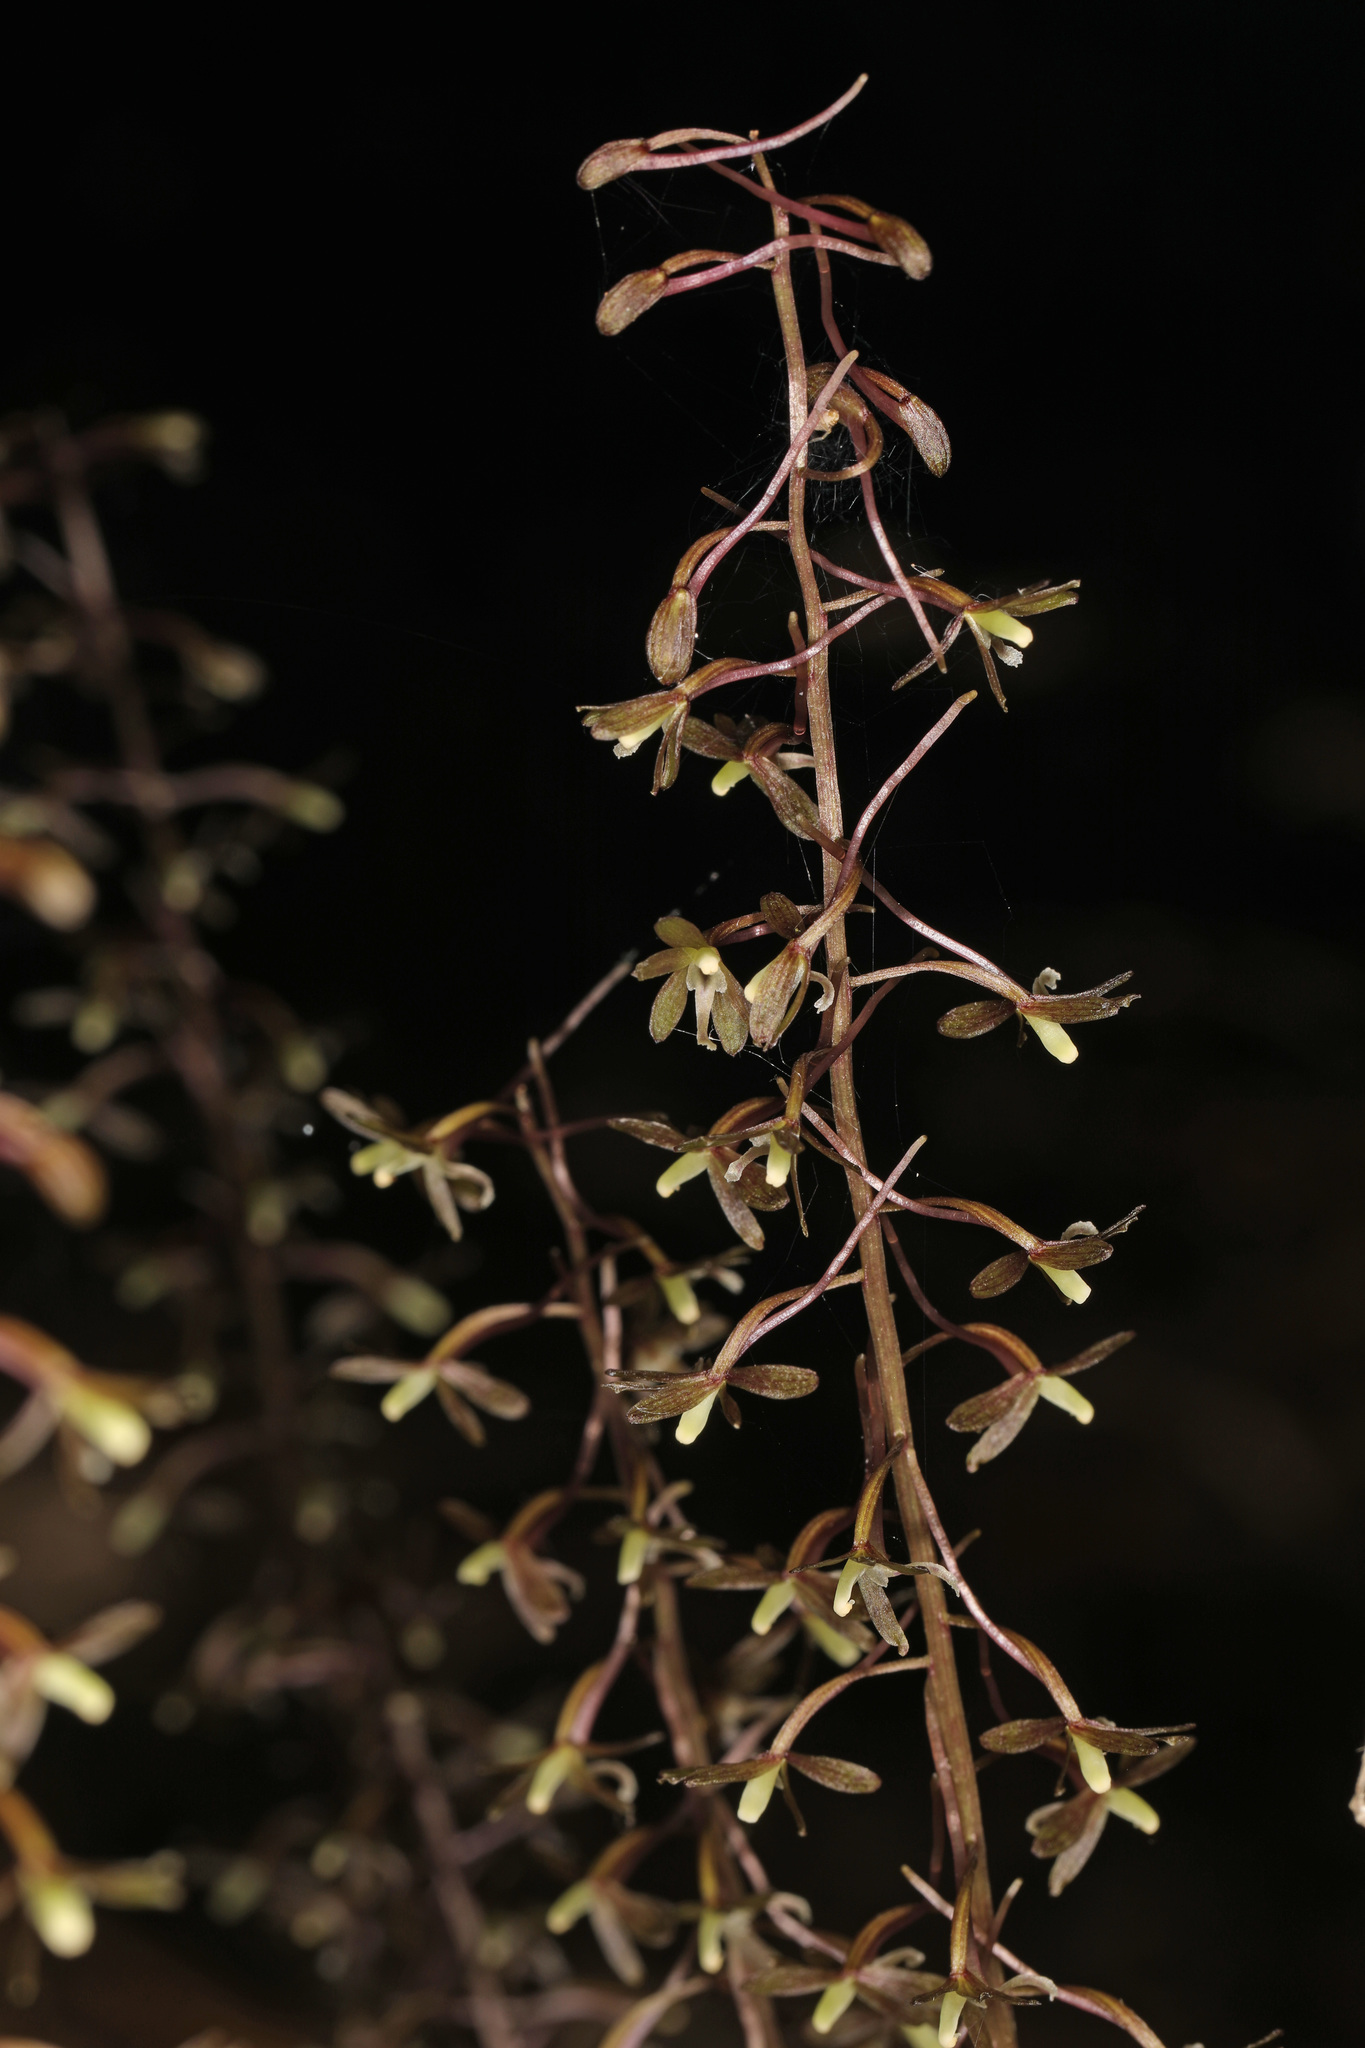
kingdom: Plantae
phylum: Tracheophyta
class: Liliopsida
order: Asparagales
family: Orchidaceae
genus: Tipularia
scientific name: Tipularia discolor
